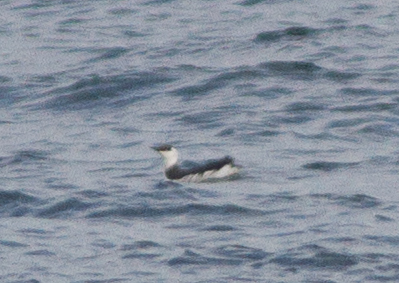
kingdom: Animalia
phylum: Chordata
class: Aves
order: Charadriiformes
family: Alcidae
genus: Uria
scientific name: Uria aalge
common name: Common murre
